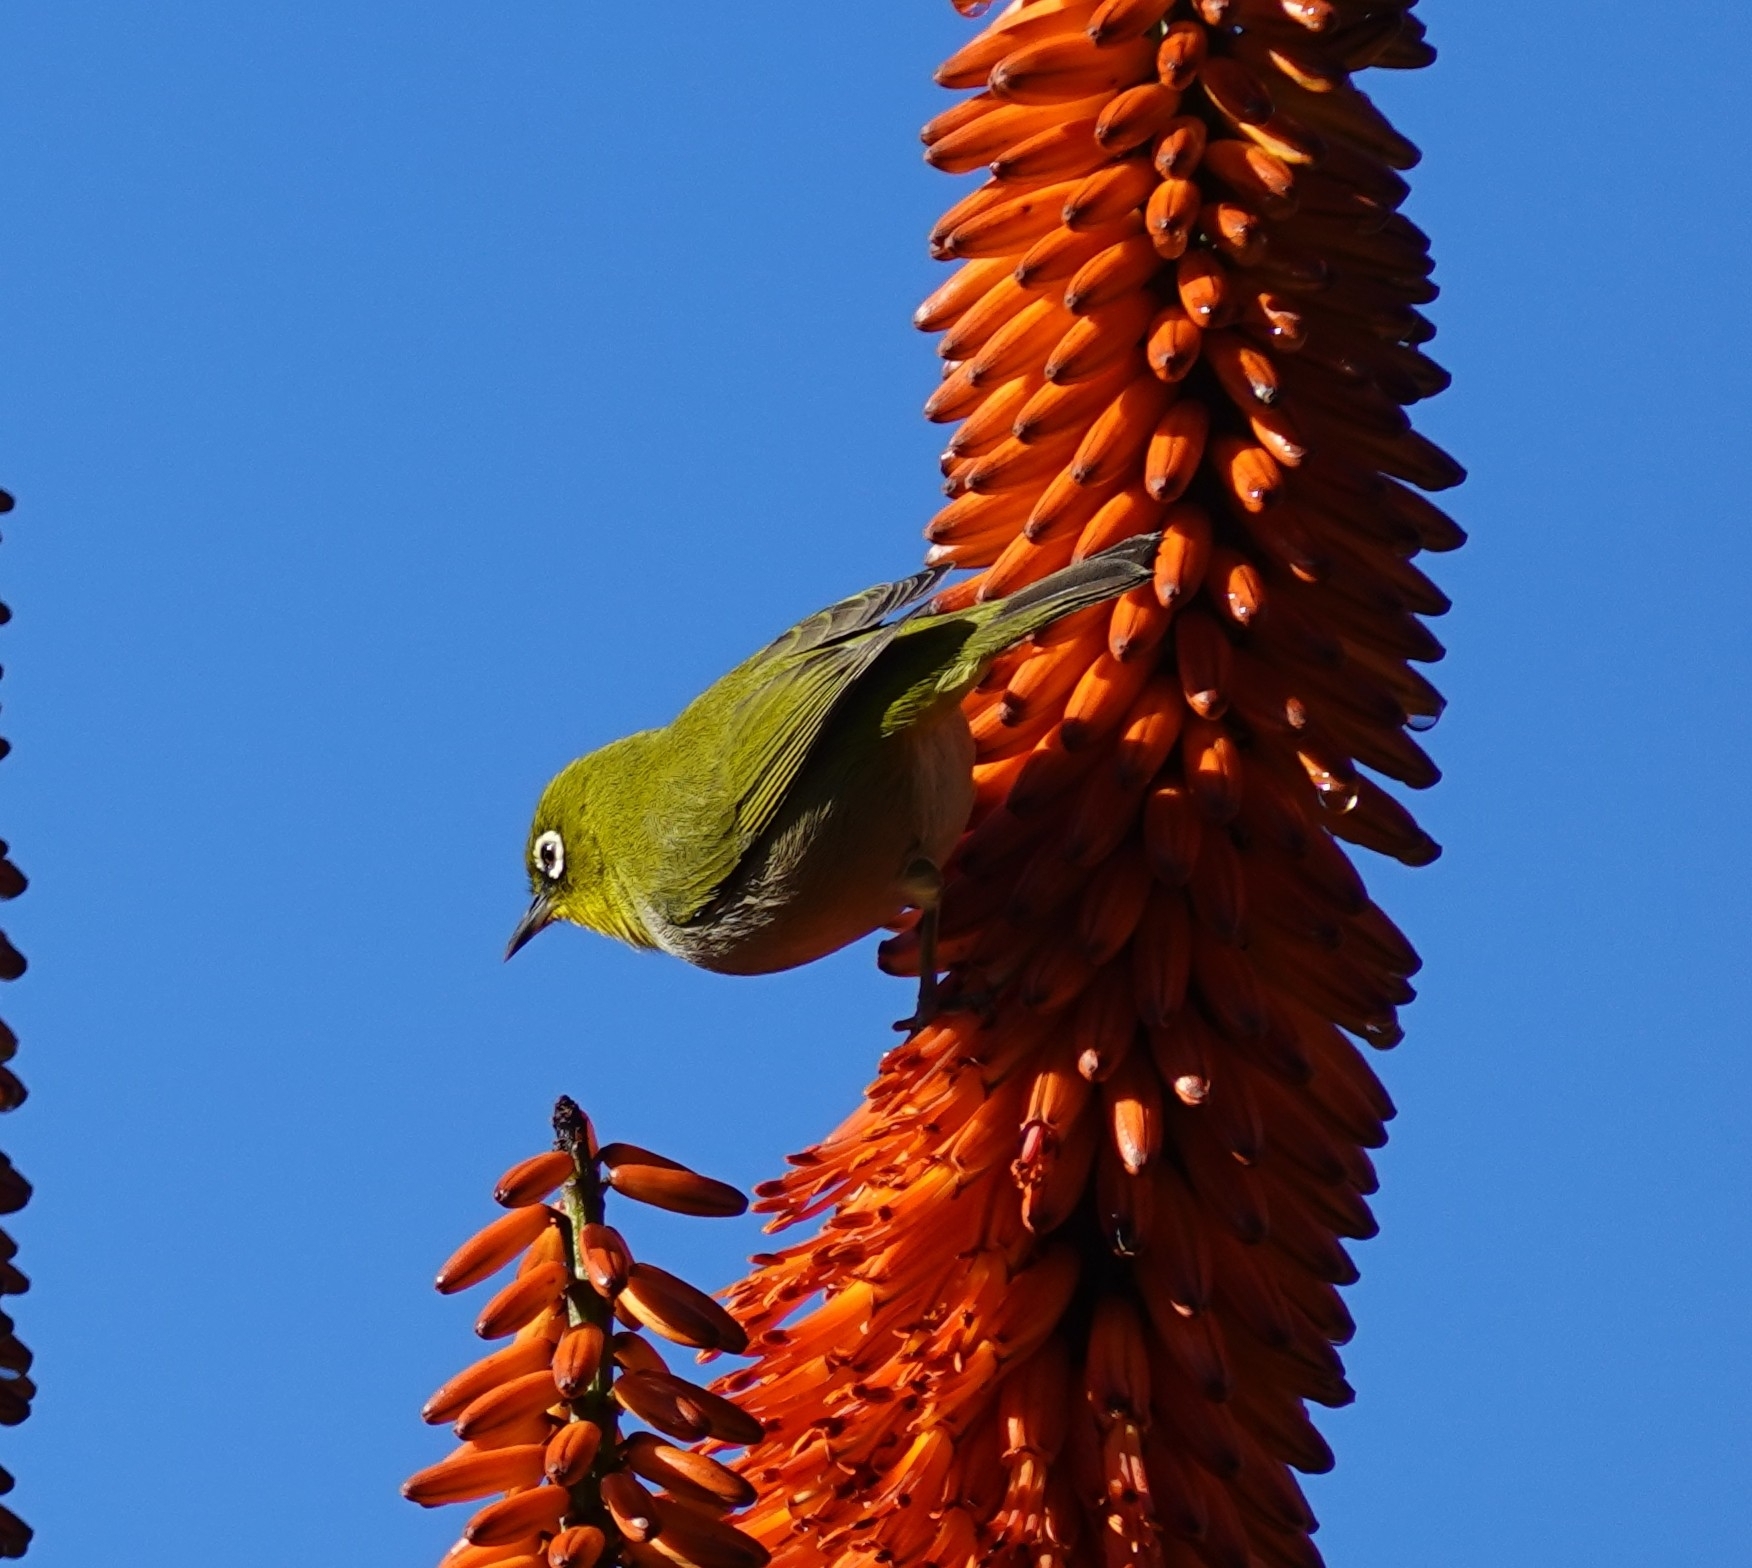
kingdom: Animalia
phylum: Chordata
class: Aves
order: Passeriformes
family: Zosteropidae
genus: Zosterops
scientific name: Zosterops virens
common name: Cape white-eye
